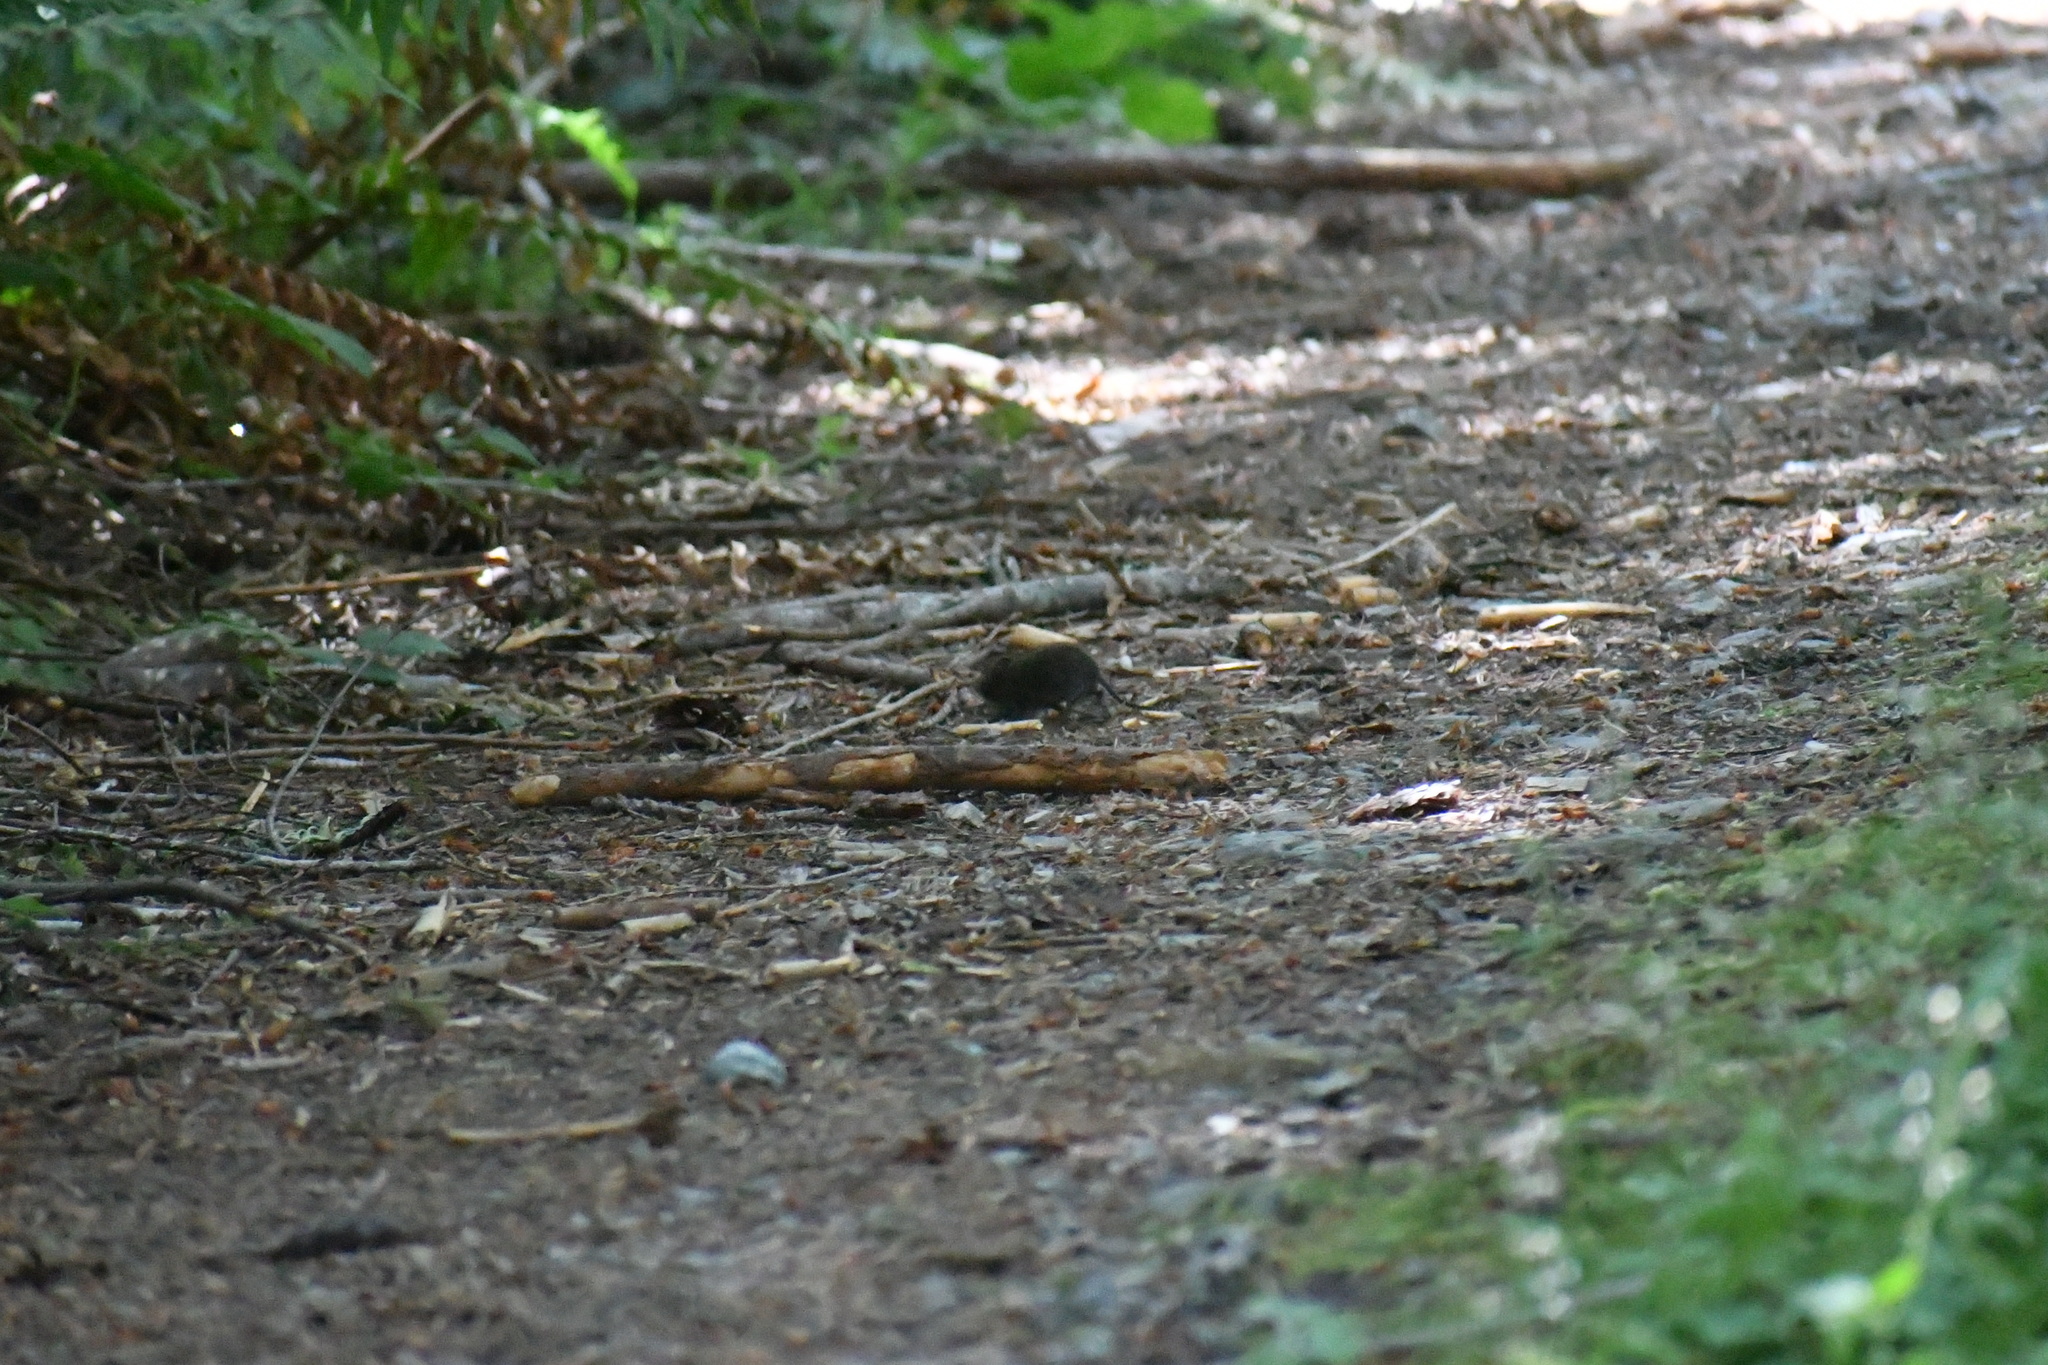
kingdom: Animalia
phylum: Chordata
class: Mammalia
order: Rodentia
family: Cricetidae
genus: Microtus
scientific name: Microtus townsendii
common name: Townsend's vole
